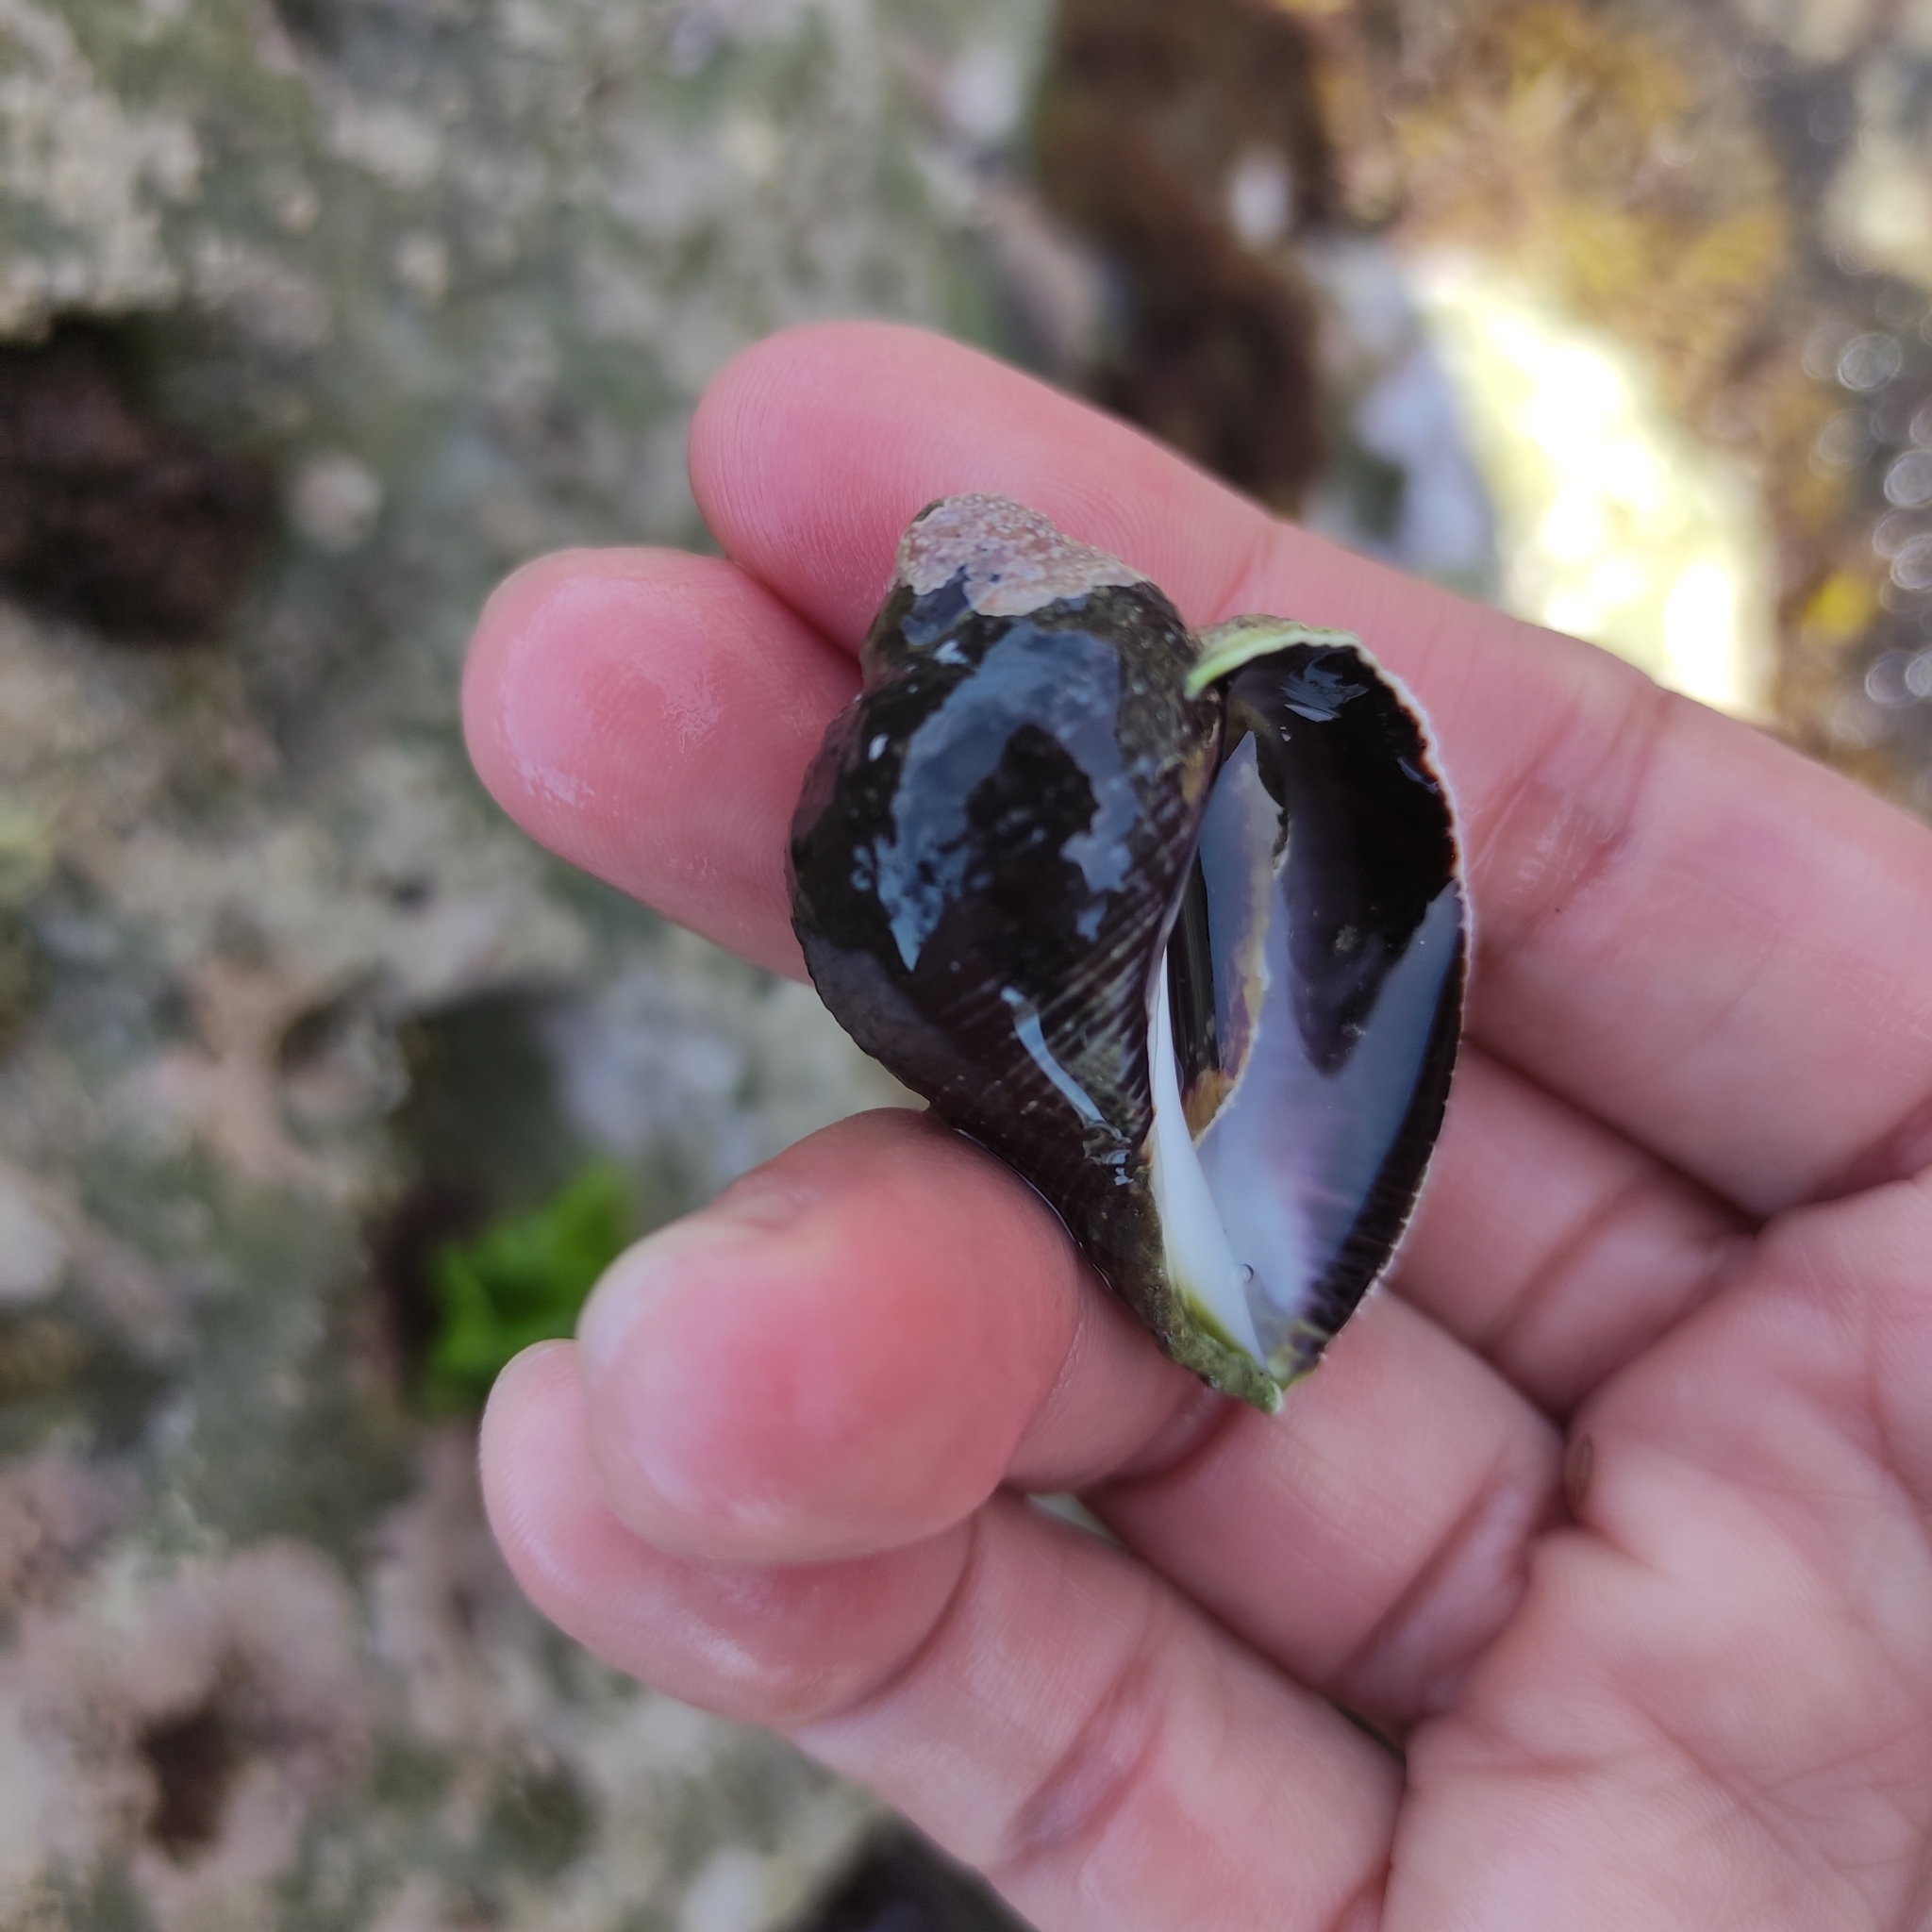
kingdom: Animalia
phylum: Mollusca
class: Gastropoda
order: Neogastropoda
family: Muricidae
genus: Haustrum
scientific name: Haustrum haustorium
